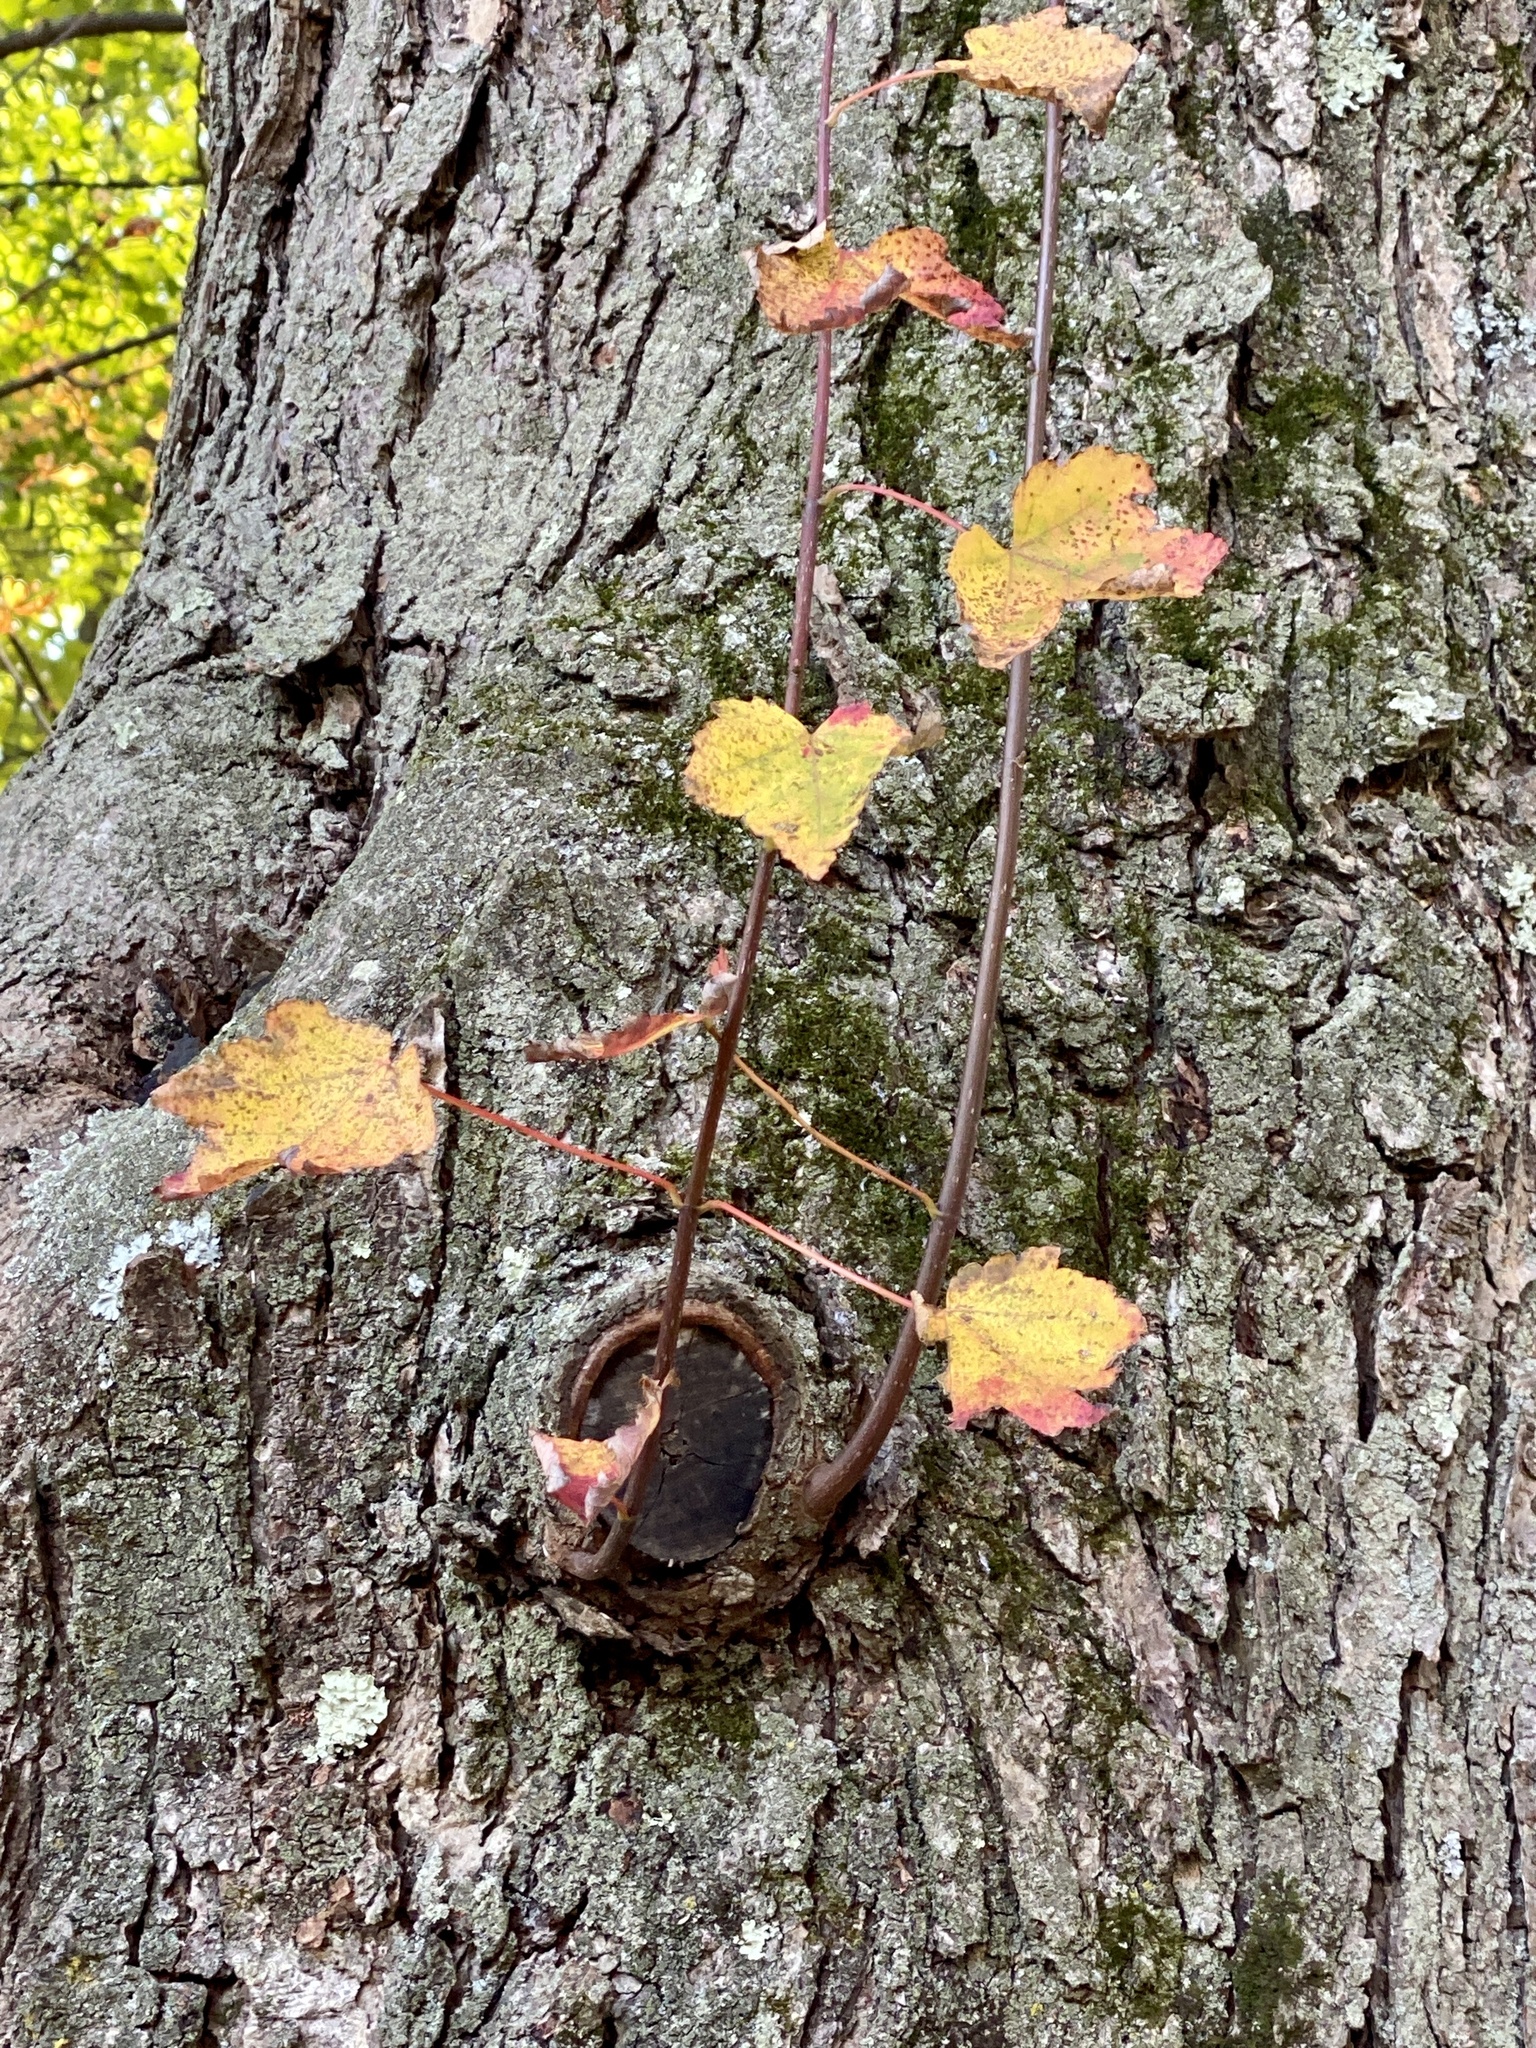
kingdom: Plantae
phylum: Tracheophyta
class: Magnoliopsida
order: Sapindales
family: Sapindaceae
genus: Acer
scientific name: Acer rubrum
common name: Red maple
